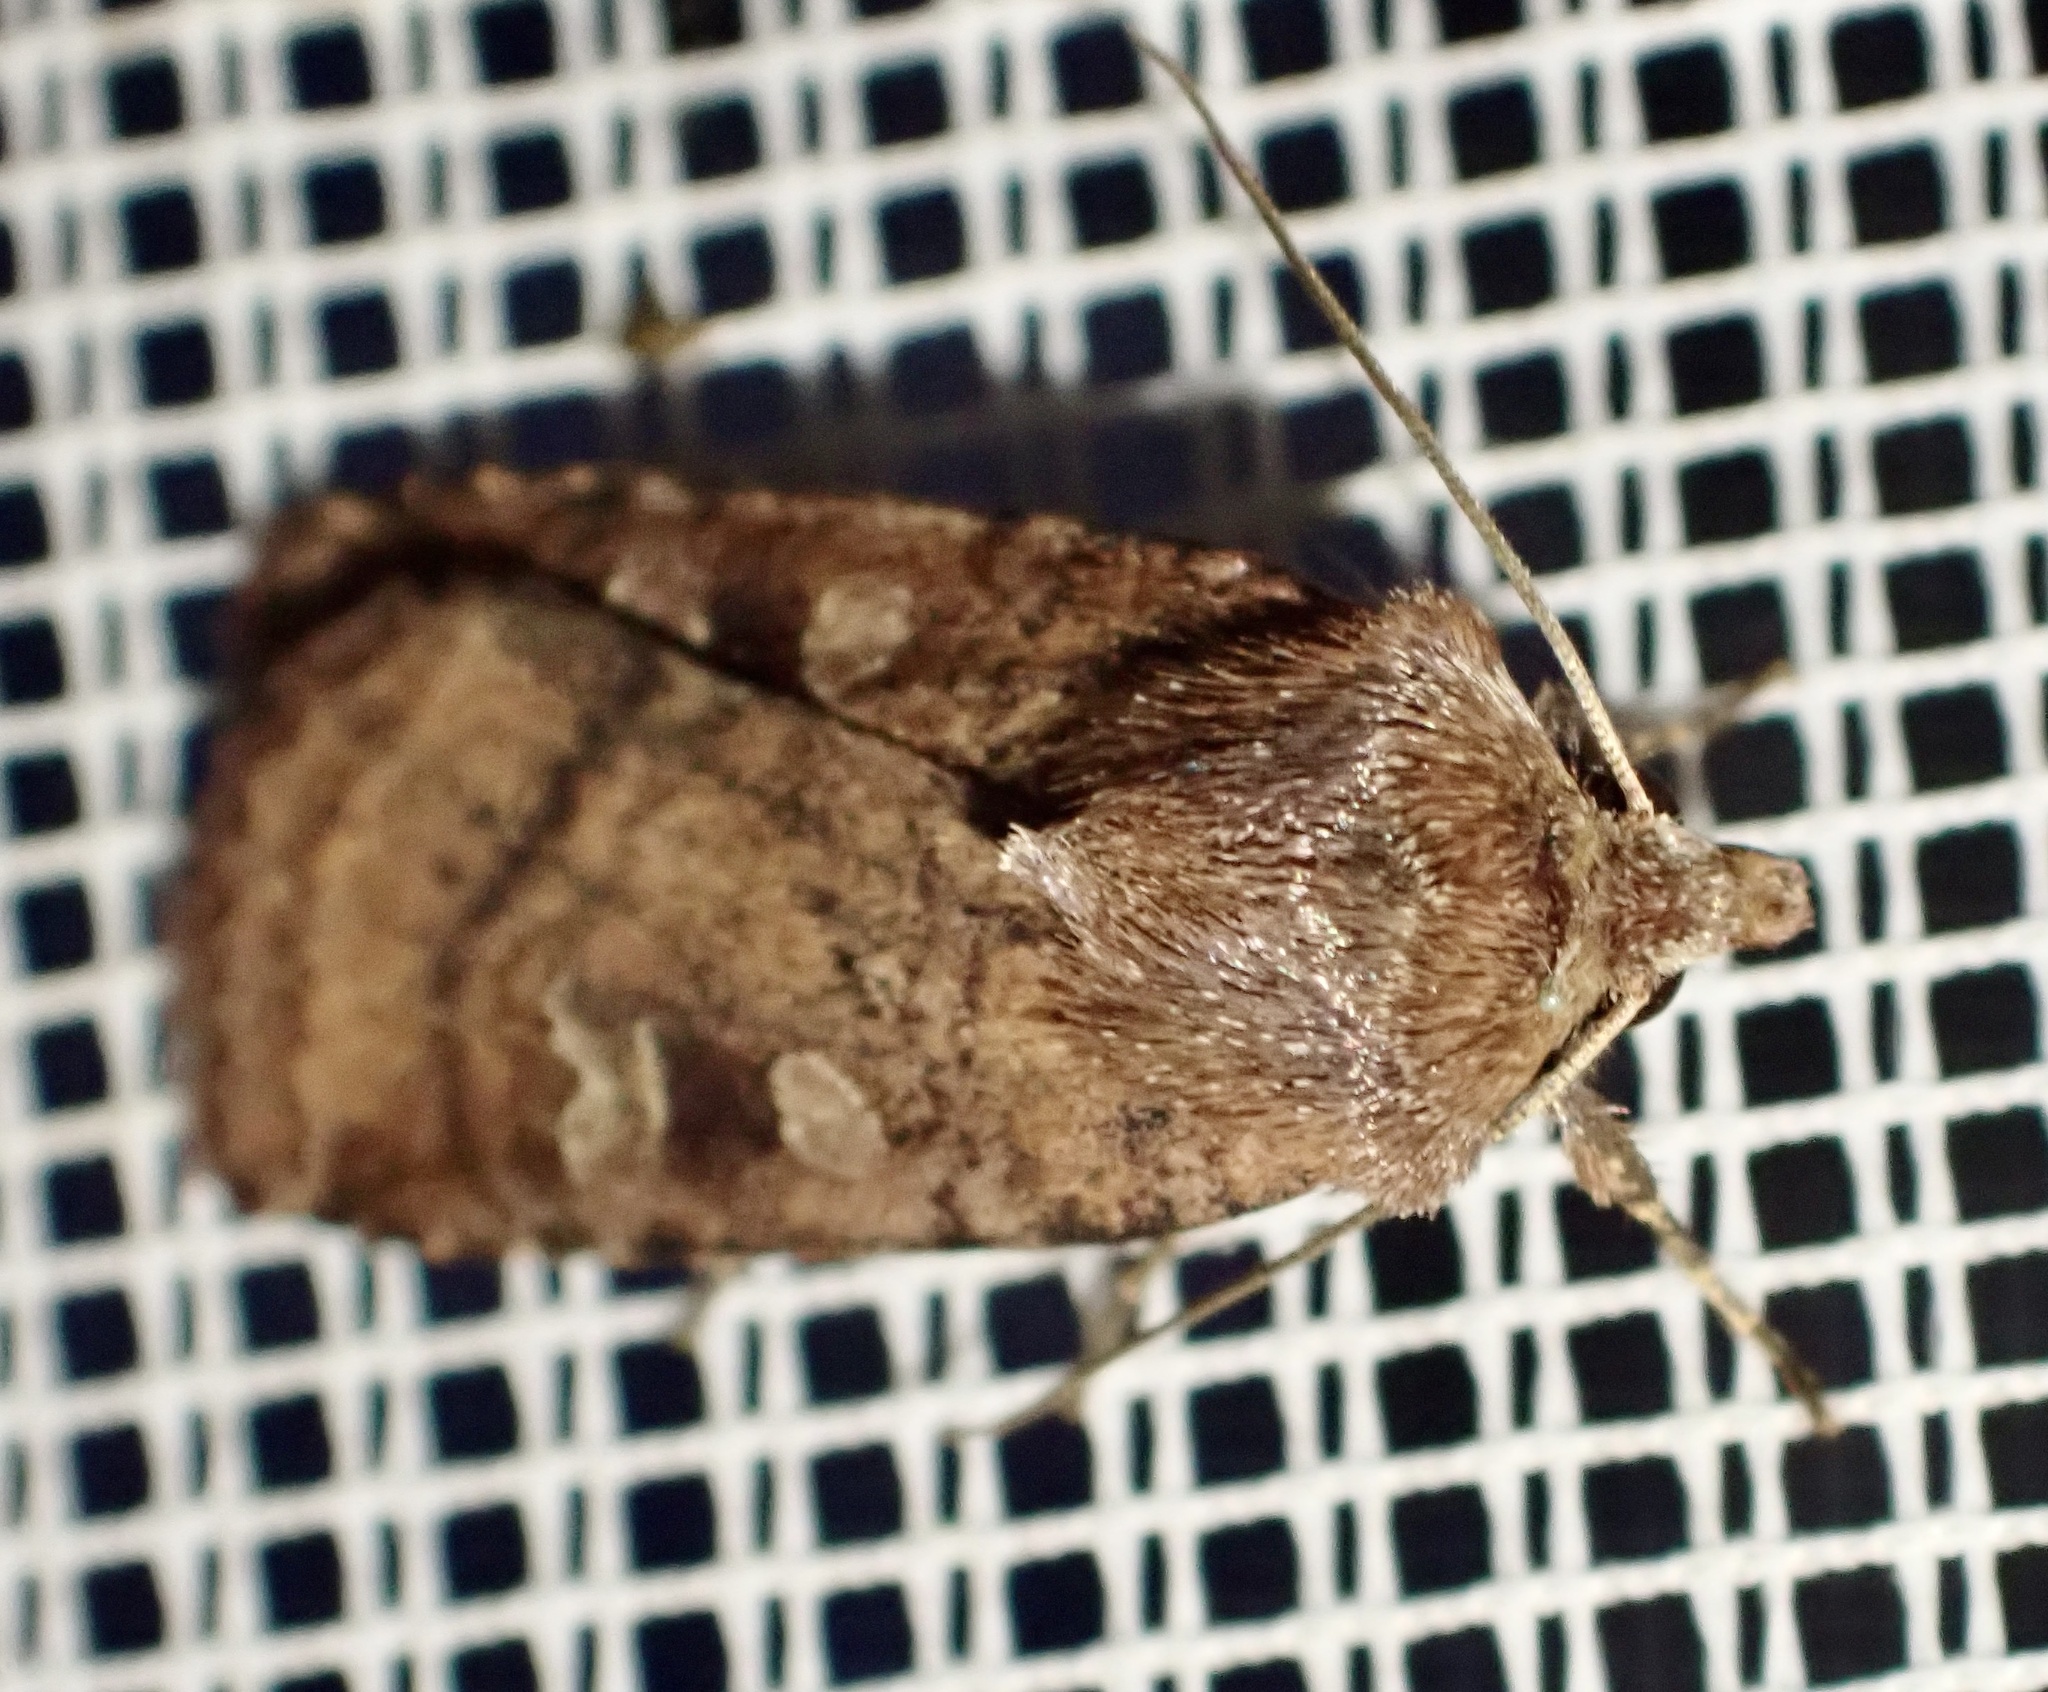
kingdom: Animalia
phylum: Arthropoda
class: Insecta
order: Lepidoptera
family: Noctuidae
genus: Diarsia
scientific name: Diarsia rubi
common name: Small square-spot
